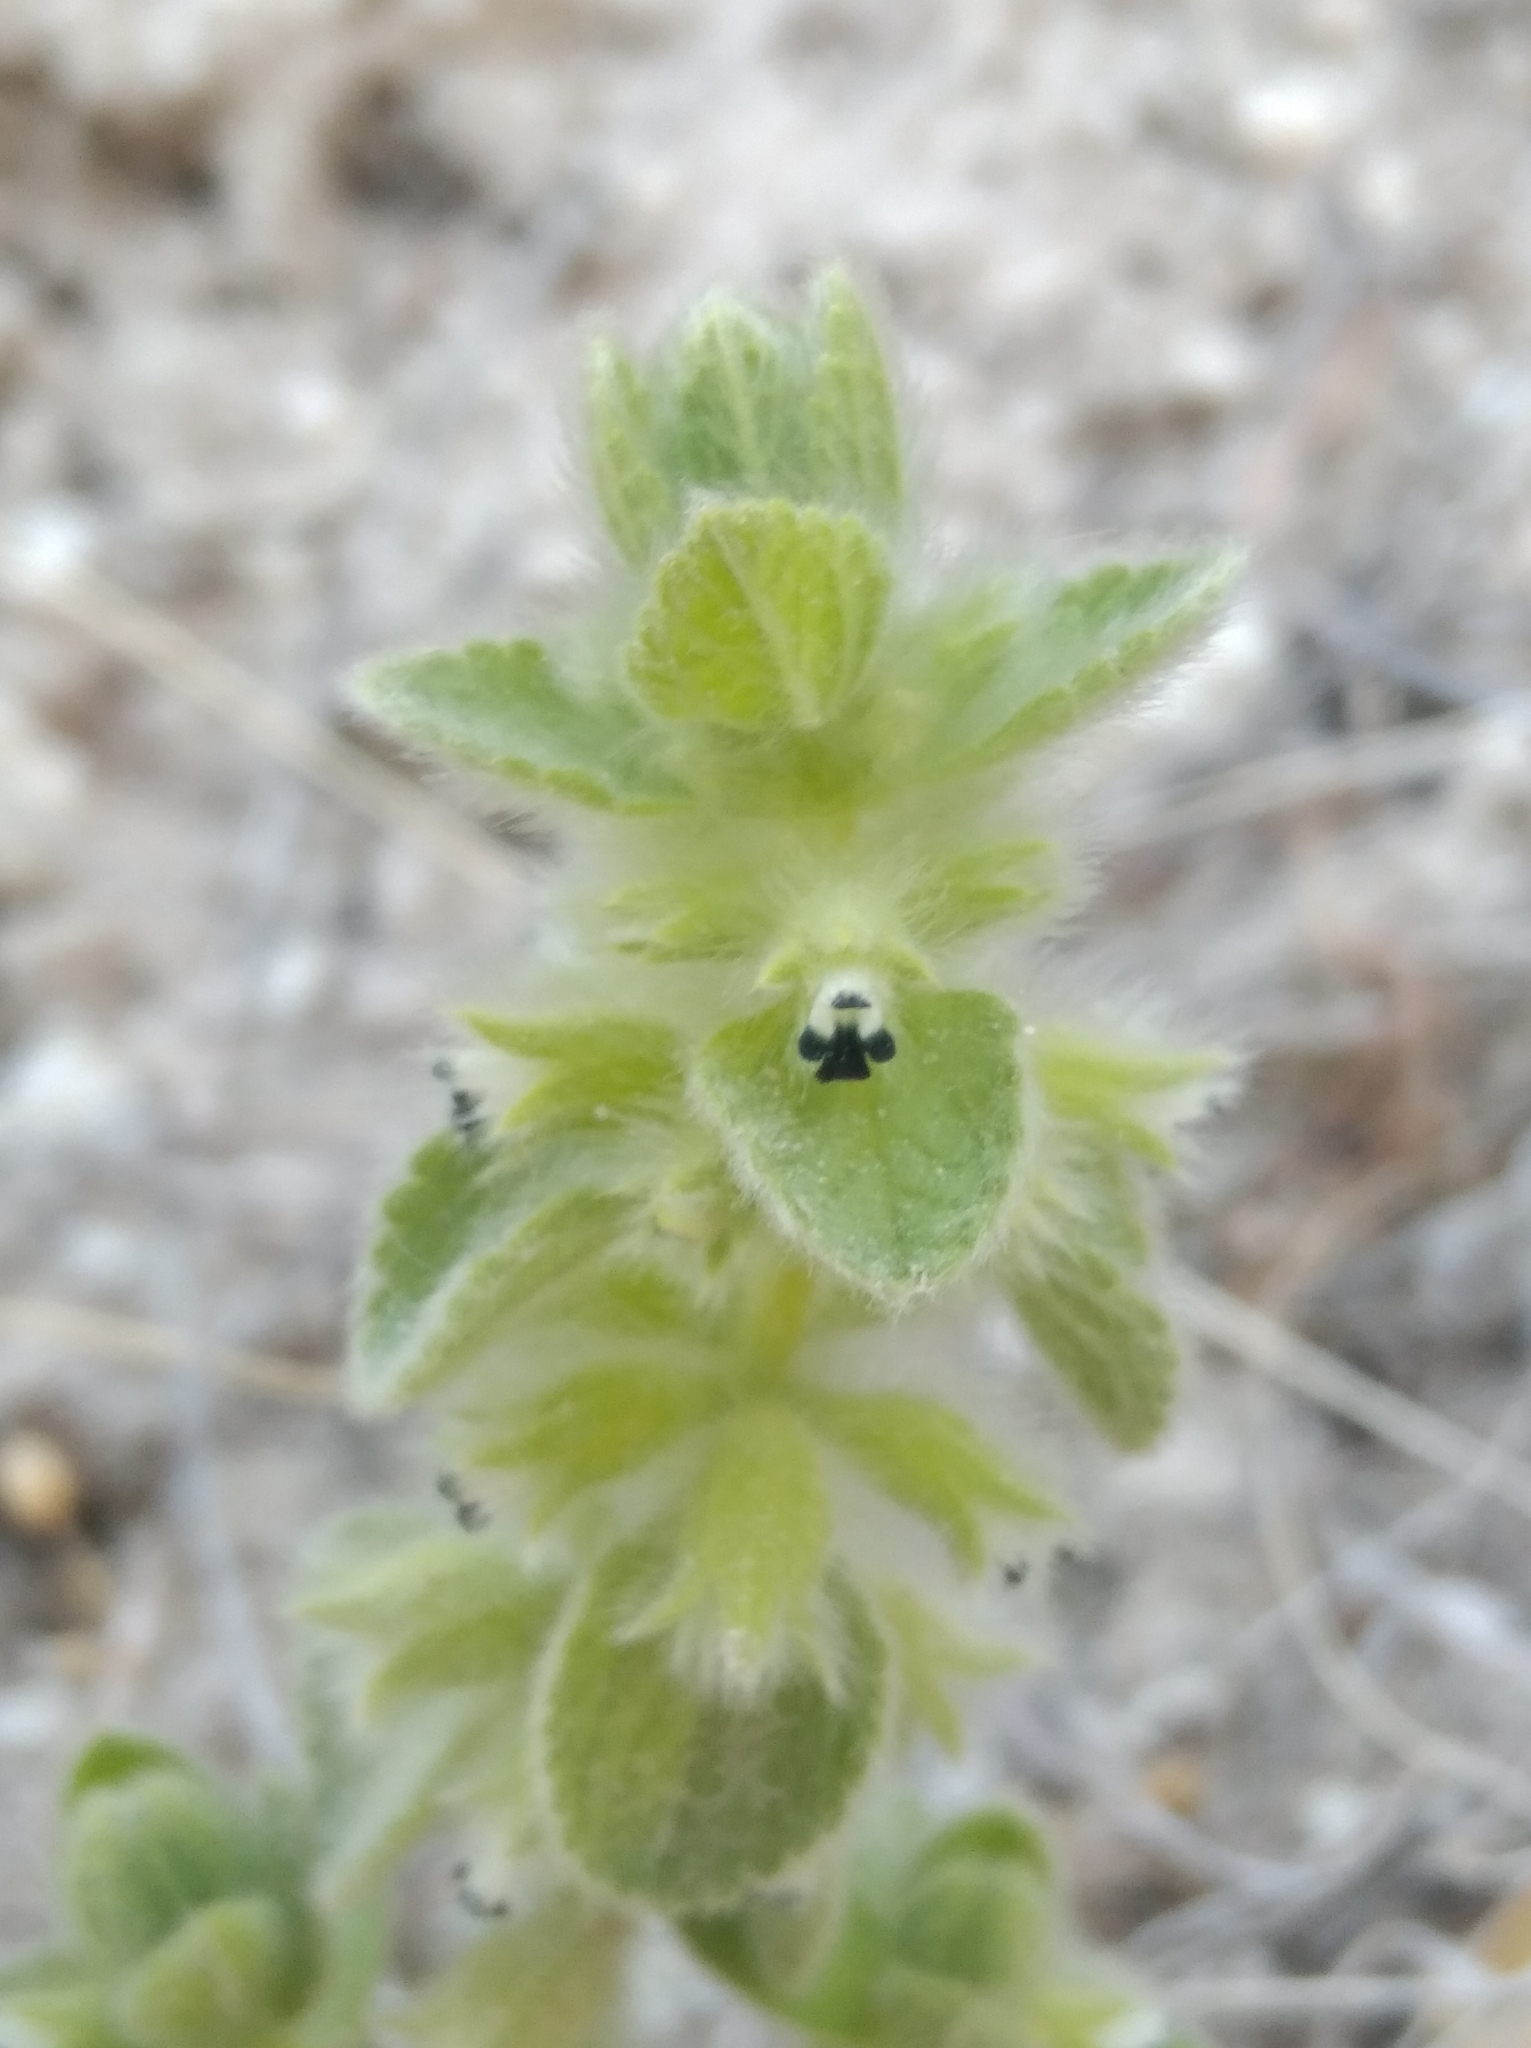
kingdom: Plantae
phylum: Tracheophyta
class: Magnoliopsida
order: Lamiales
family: Lamiaceae
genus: Sideritis
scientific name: Sideritis lanata
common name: Hairy ironwort
